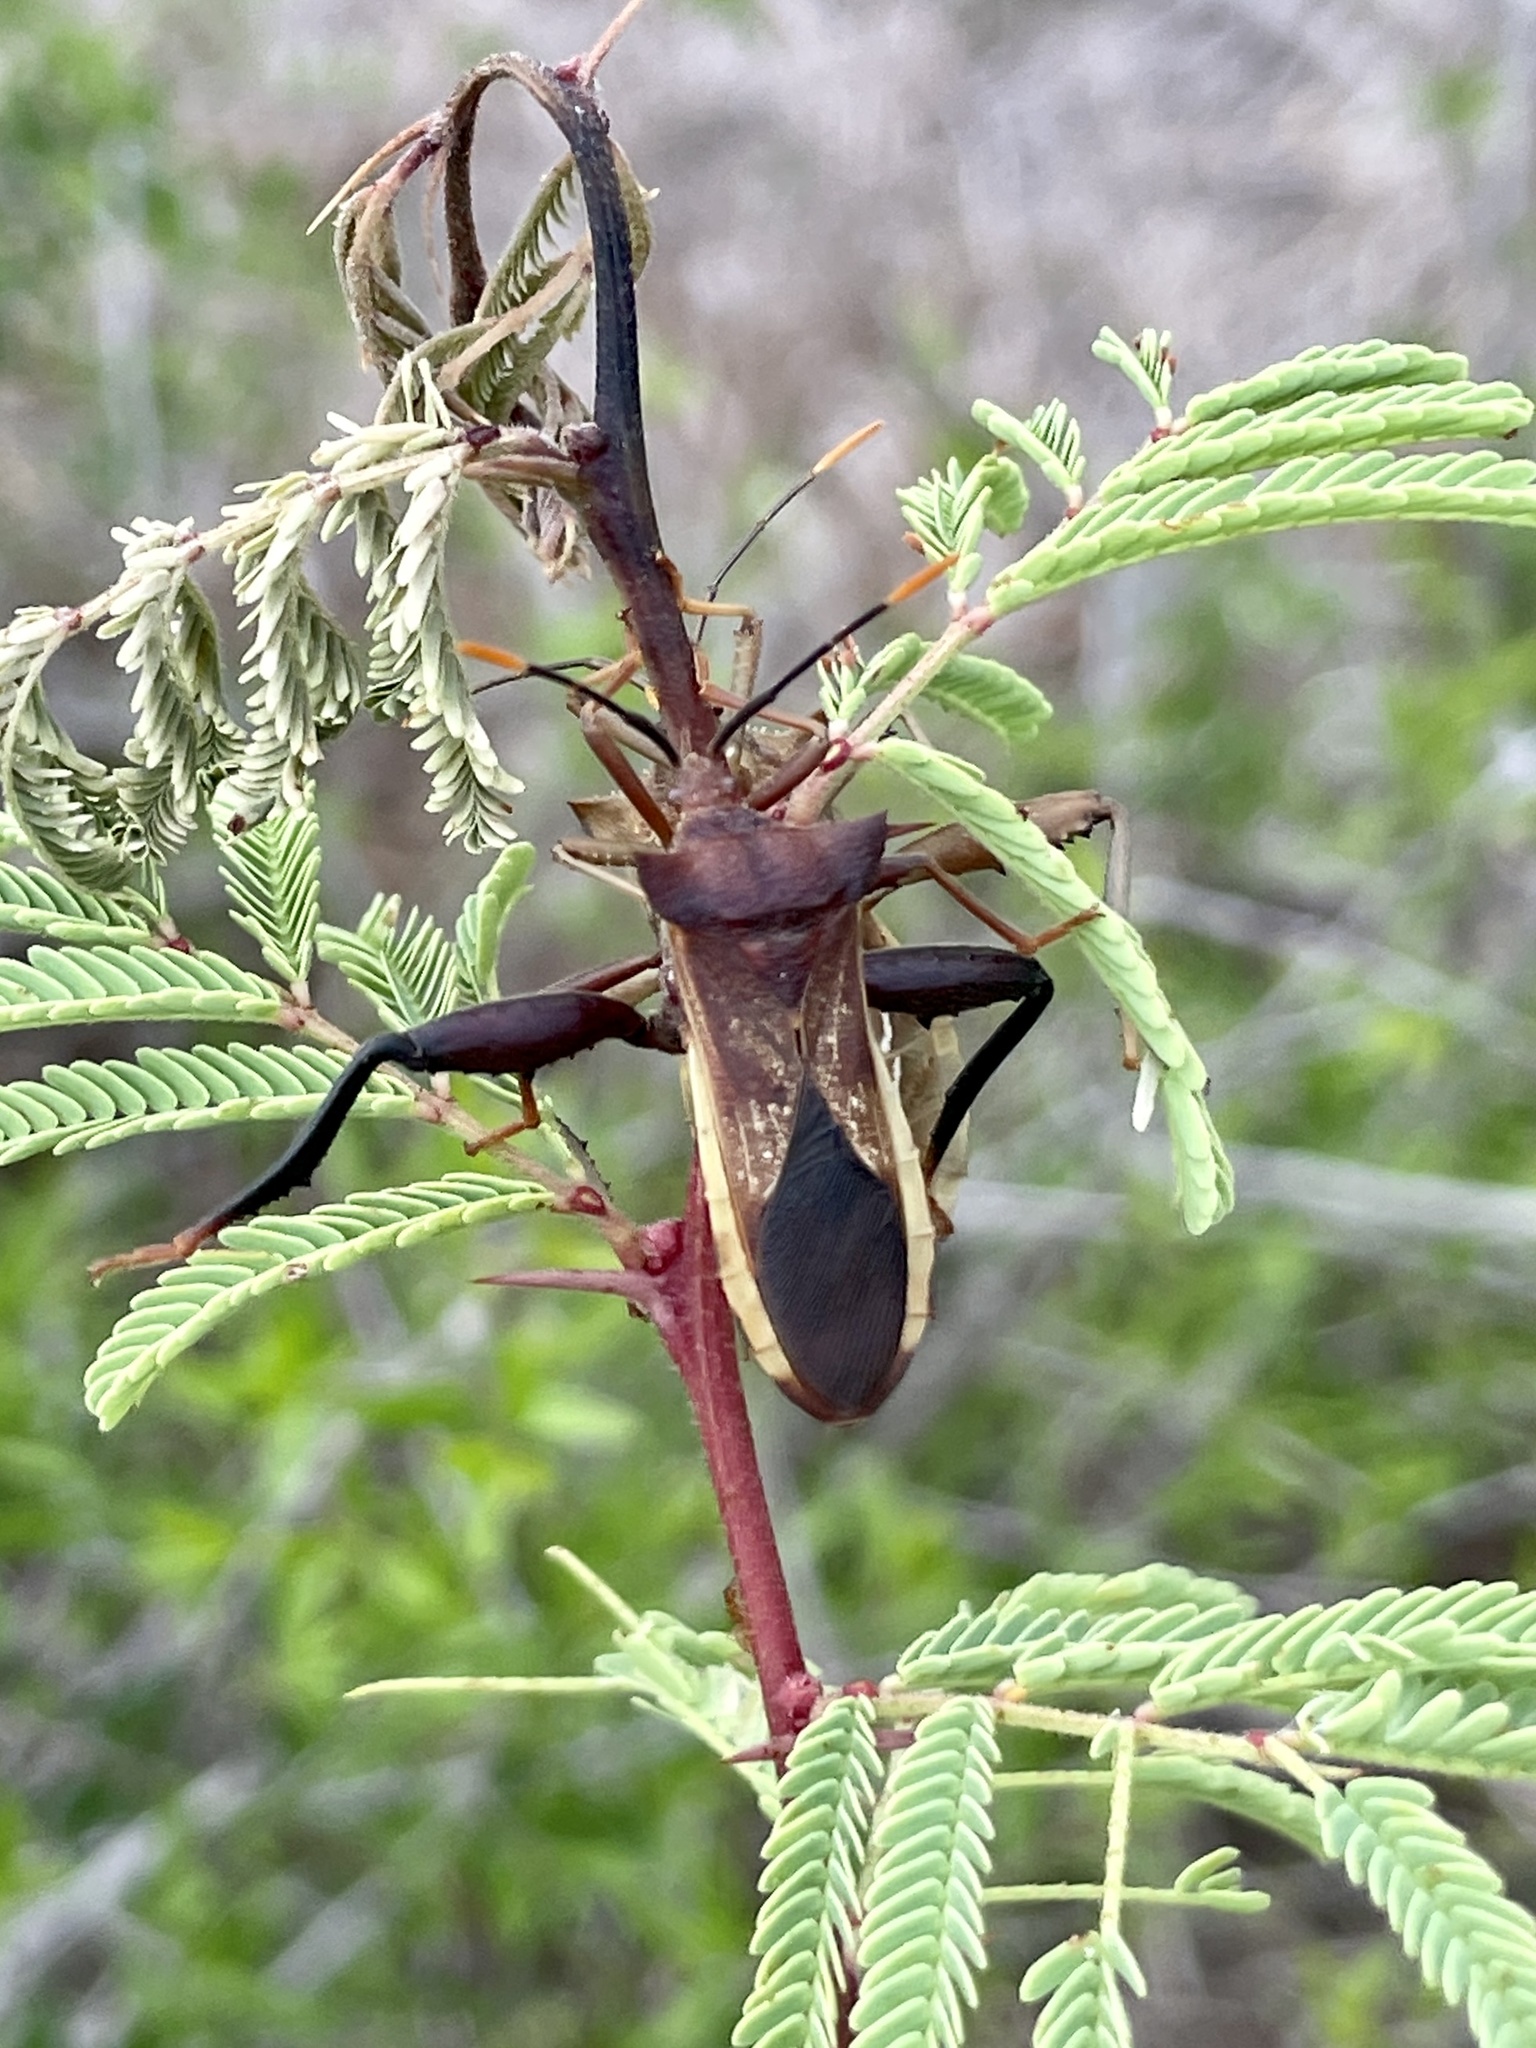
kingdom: Animalia
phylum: Arthropoda
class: Insecta
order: Hemiptera
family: Coreidae
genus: Mozena
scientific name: Mozena lunata
